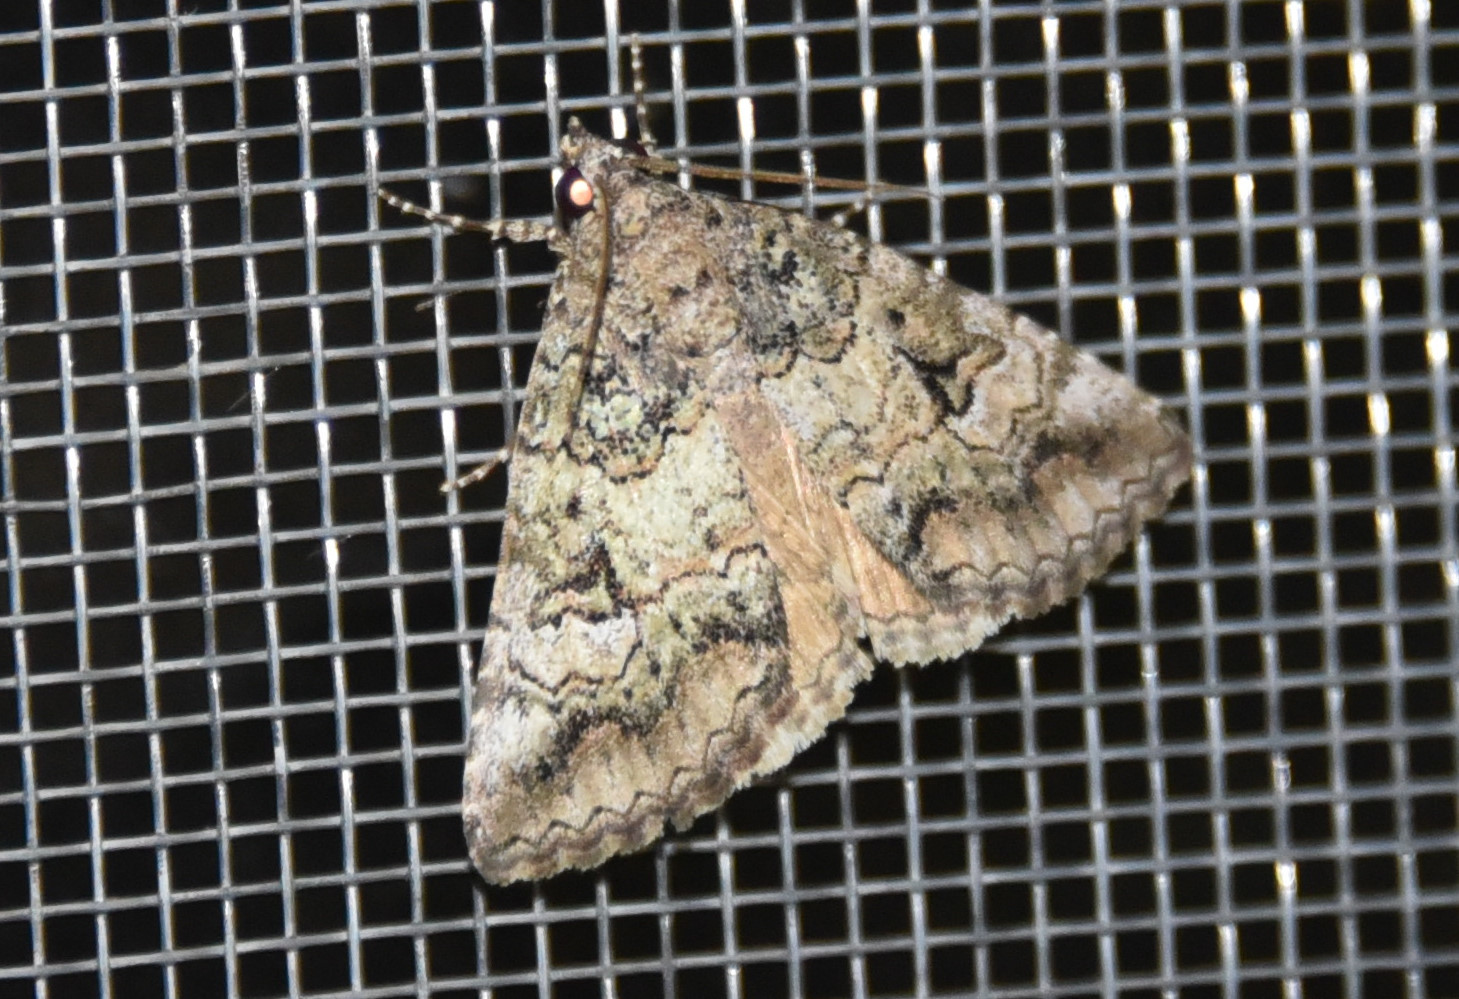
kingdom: Animalia
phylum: Arthropoda
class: Insecta
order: Lepidoptera
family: Erebidae
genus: Eubolina
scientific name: Eubolina impartialis
